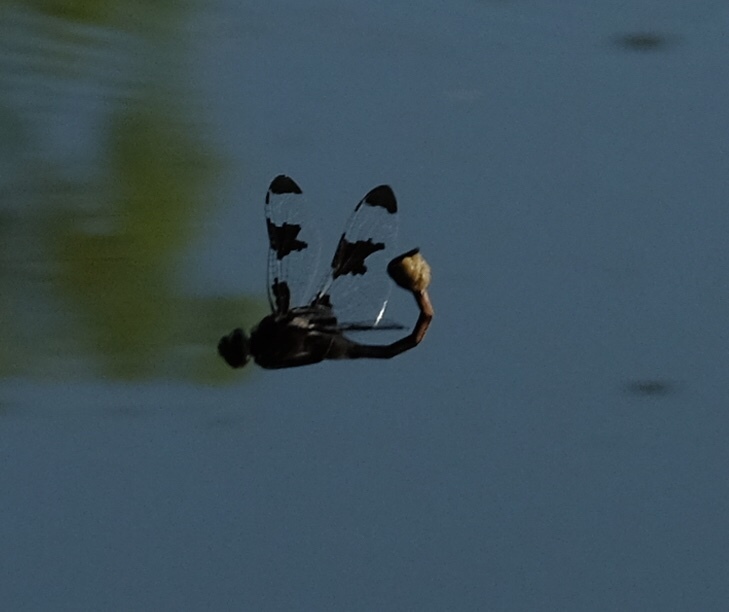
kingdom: Animalia
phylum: Arthropoda
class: Insecta
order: Odonata
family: Corduliidae
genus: Epitheca
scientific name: Epitheca princeps
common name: Prince baskettail
